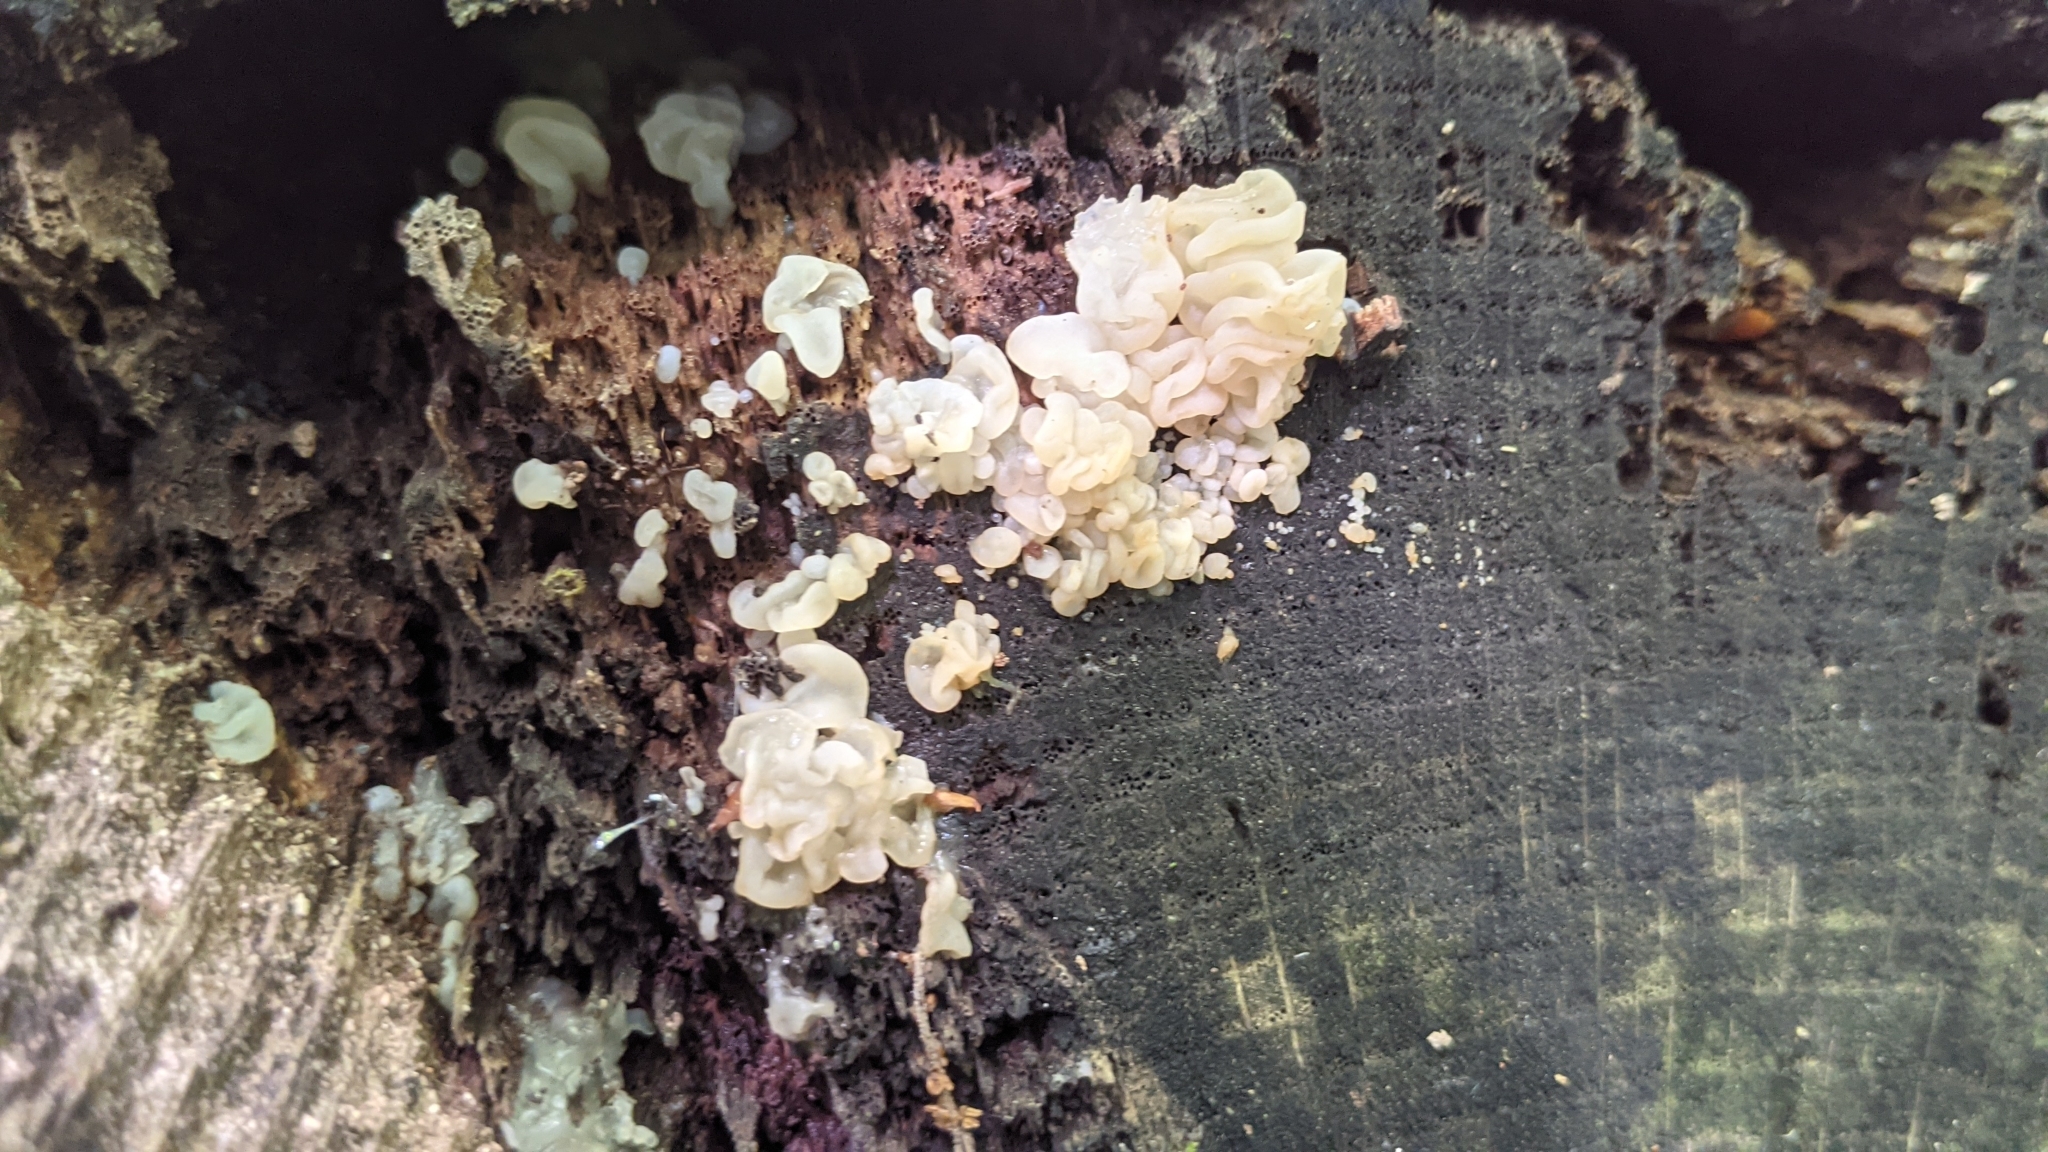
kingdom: Fungi
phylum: Basidiomycota
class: Agaricomycetes
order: Auriculariales
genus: Ductifera
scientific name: Ductifera pululahuana
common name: White jelly fungus
